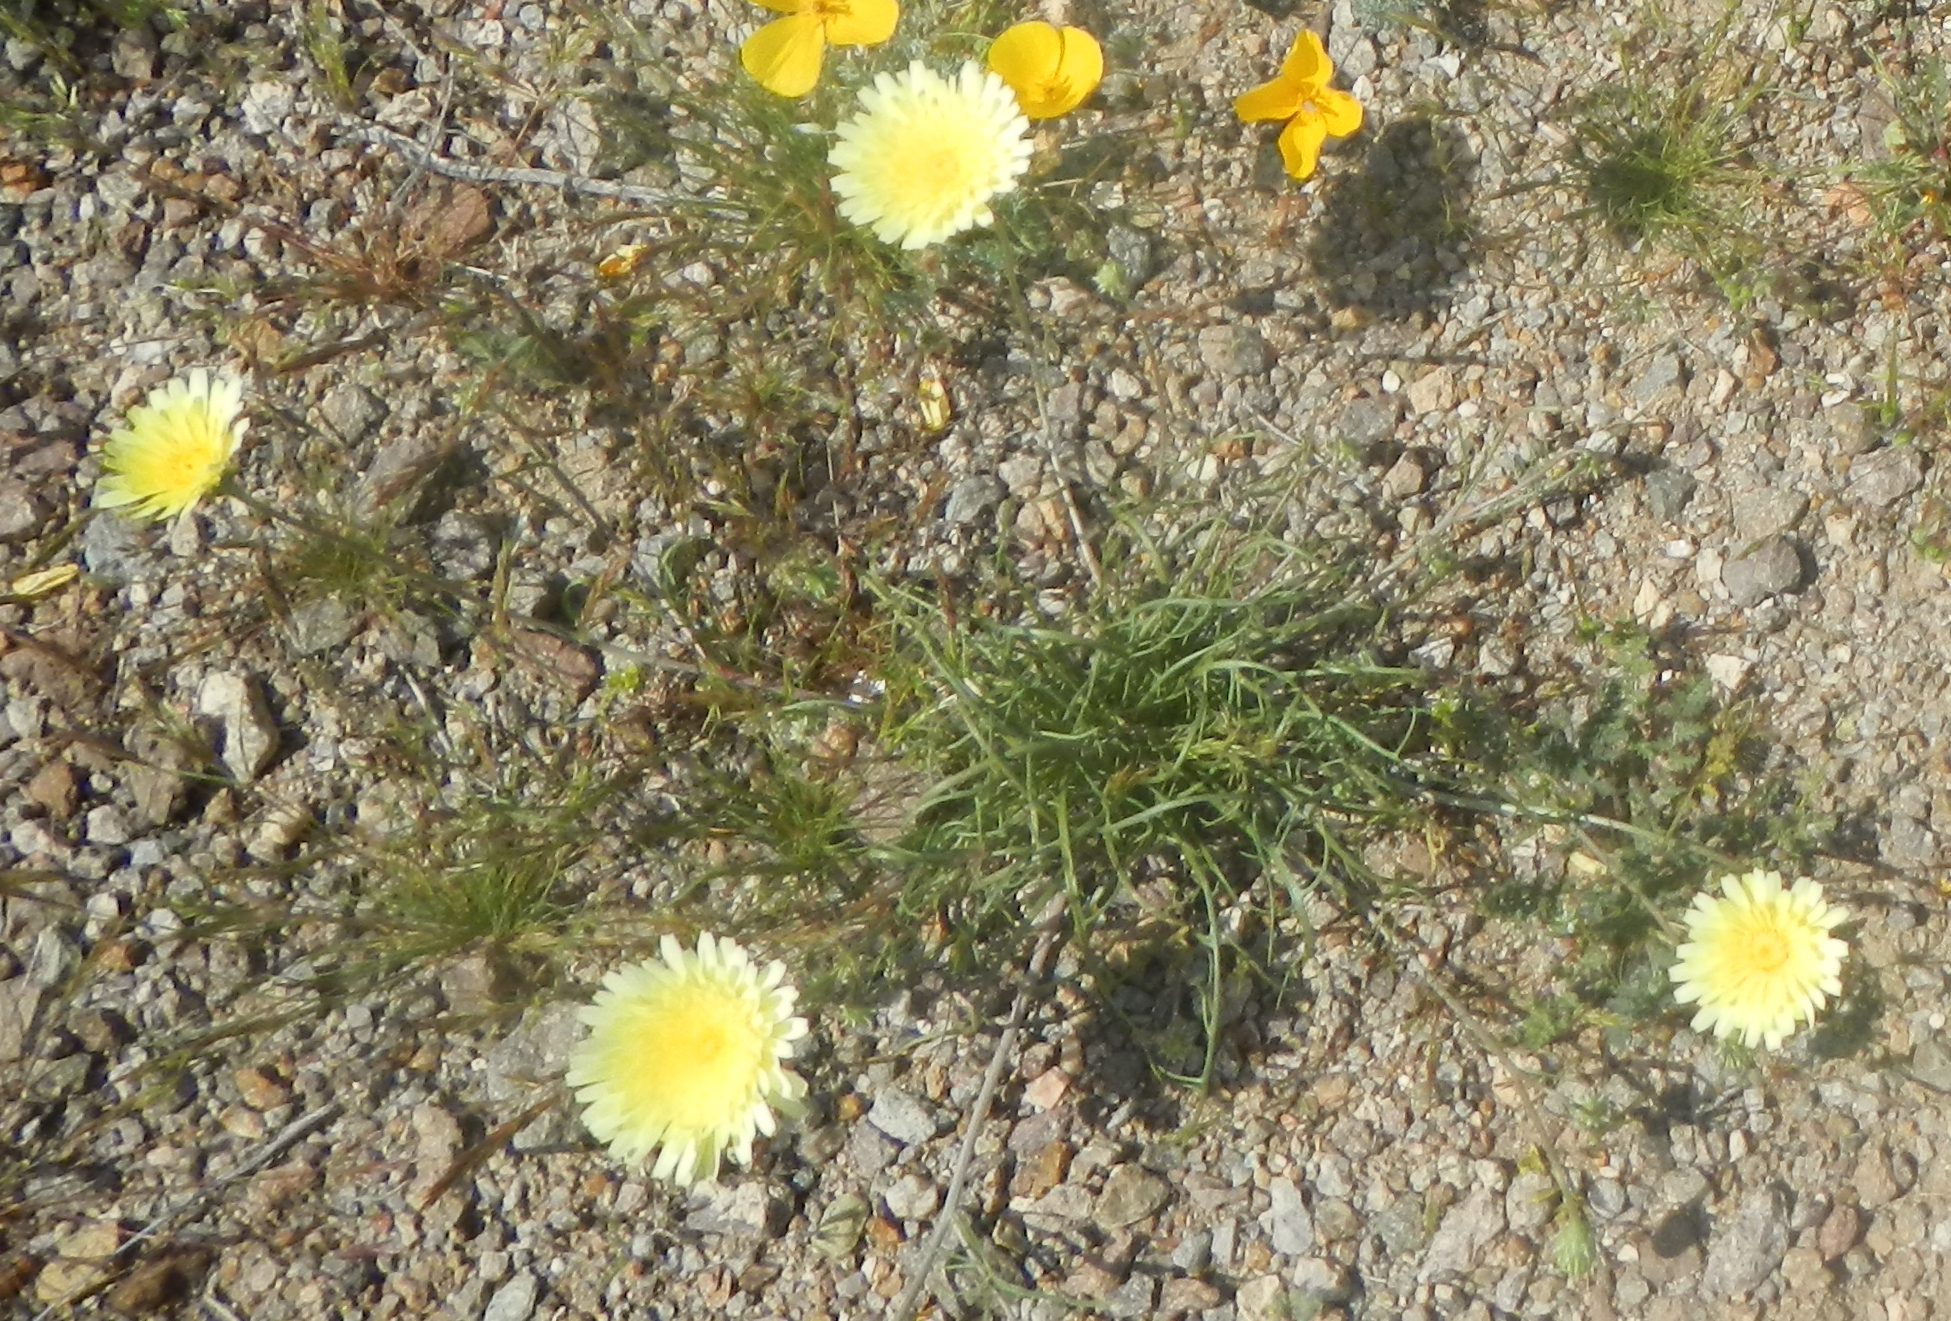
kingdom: Plantae
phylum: Tracheophyta
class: Magnoliopsida
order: Asterales
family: Asteraceae
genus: Malacothrix
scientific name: Malacothrix glabrata
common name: Smooth desert-dandelion
